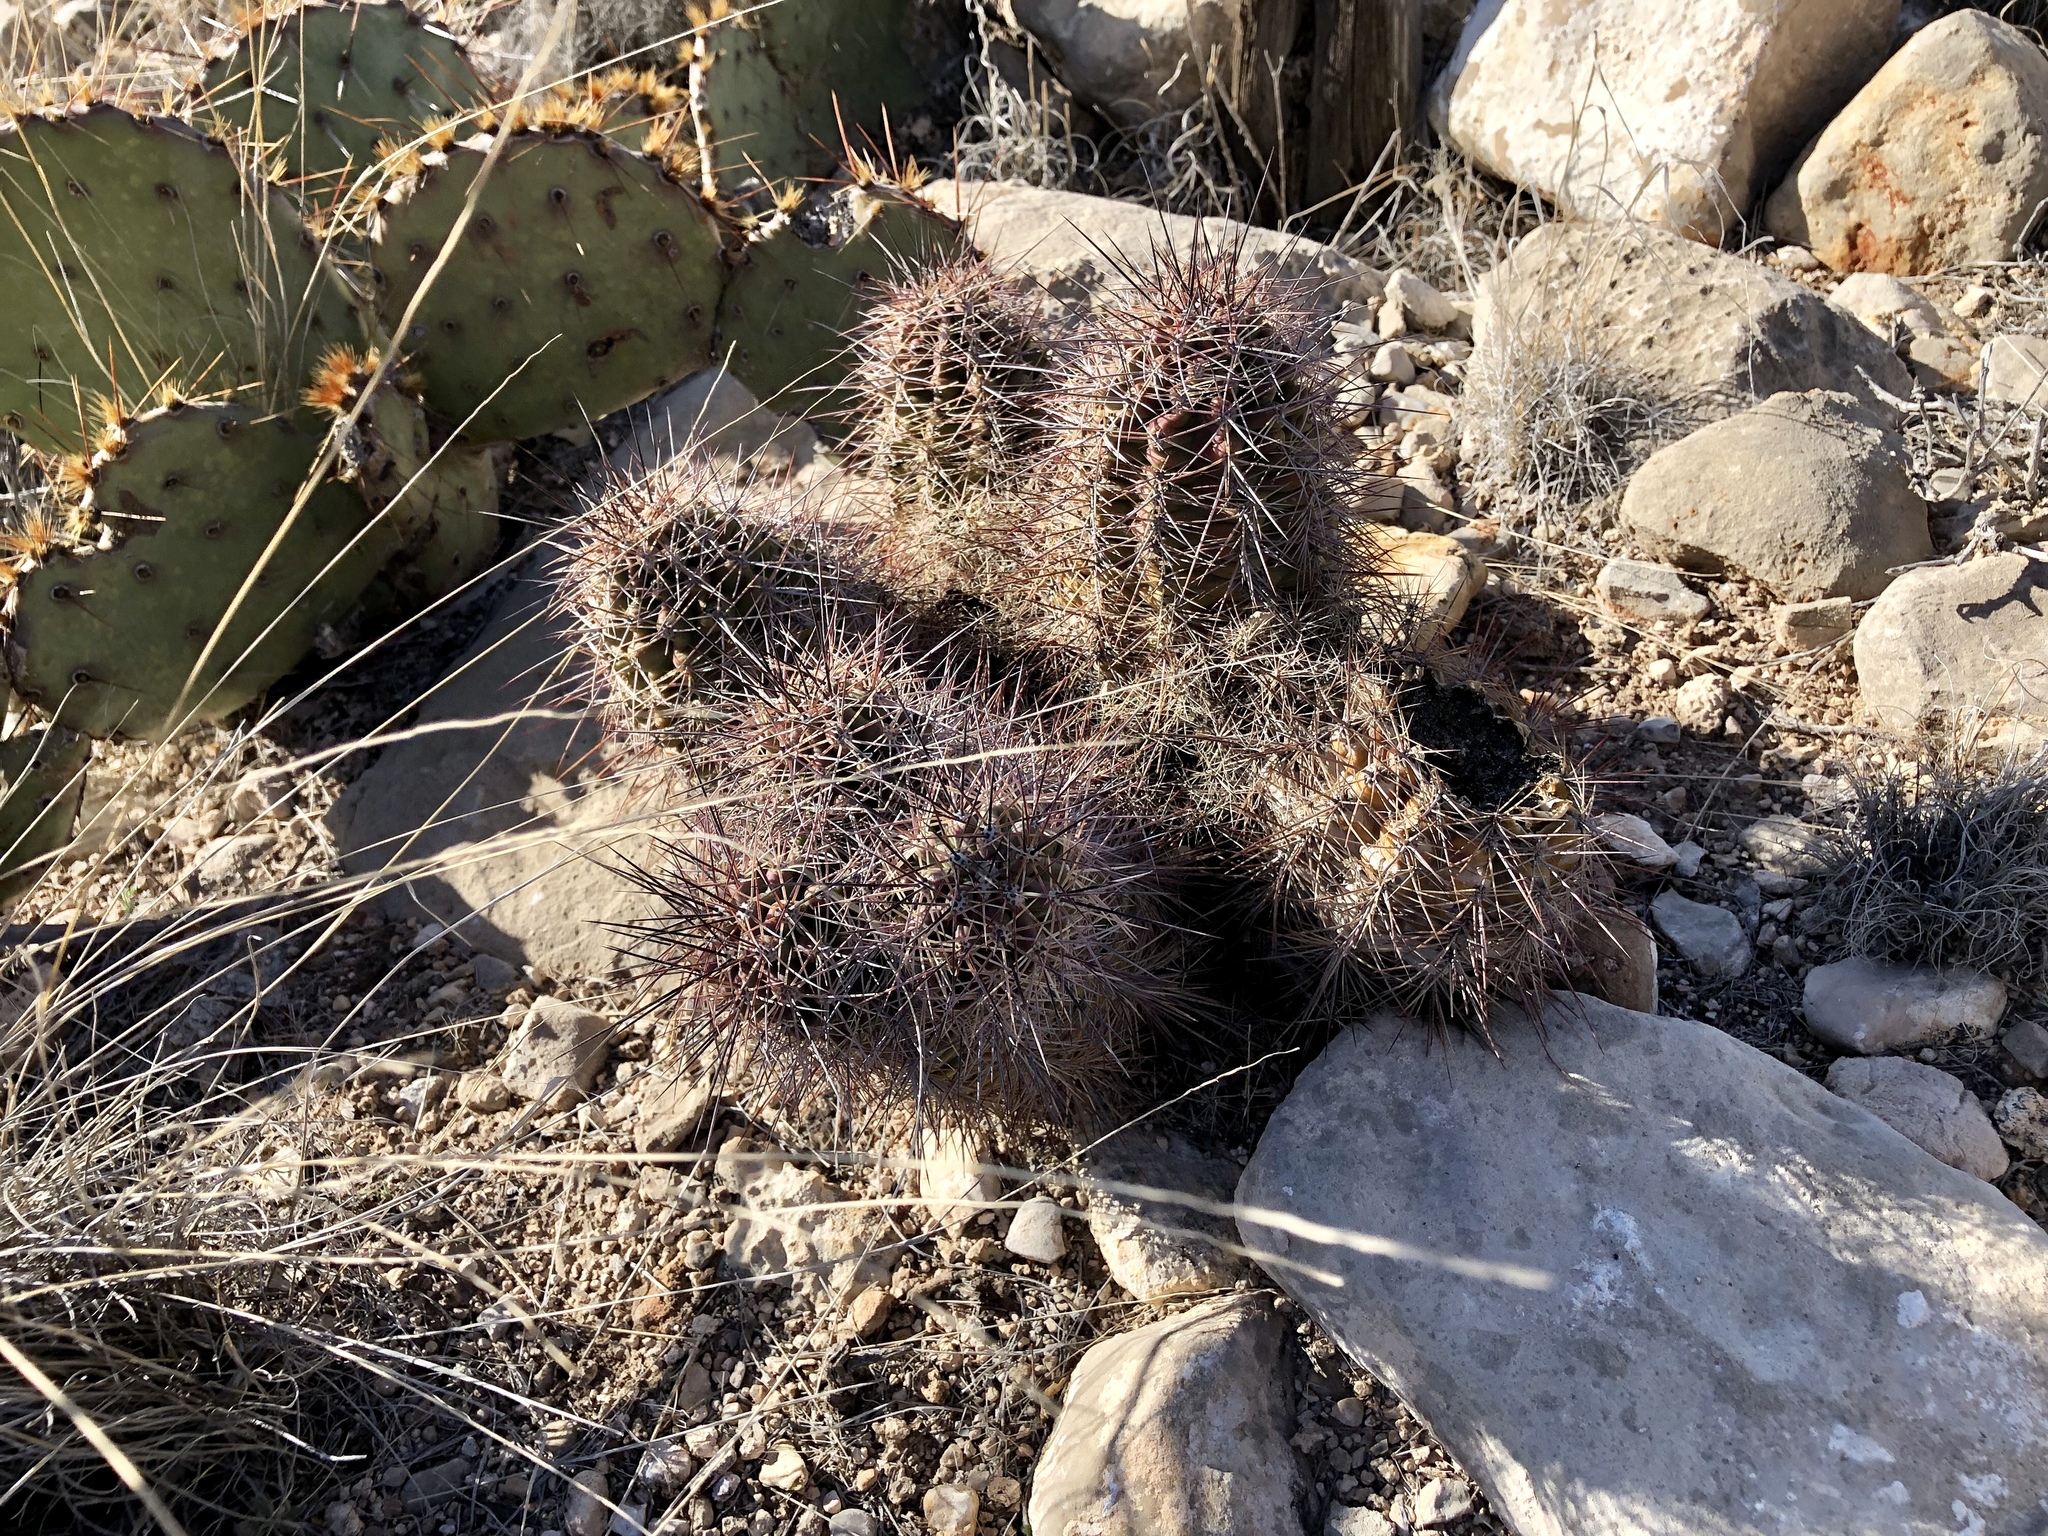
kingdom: Plantae
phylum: Tracheophyta
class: Magnoliopsida
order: Caryophyllales
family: Cactaceae
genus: Echinocereus
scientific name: Echinocereus coccineus
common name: Scarlet hedgehog cactus
